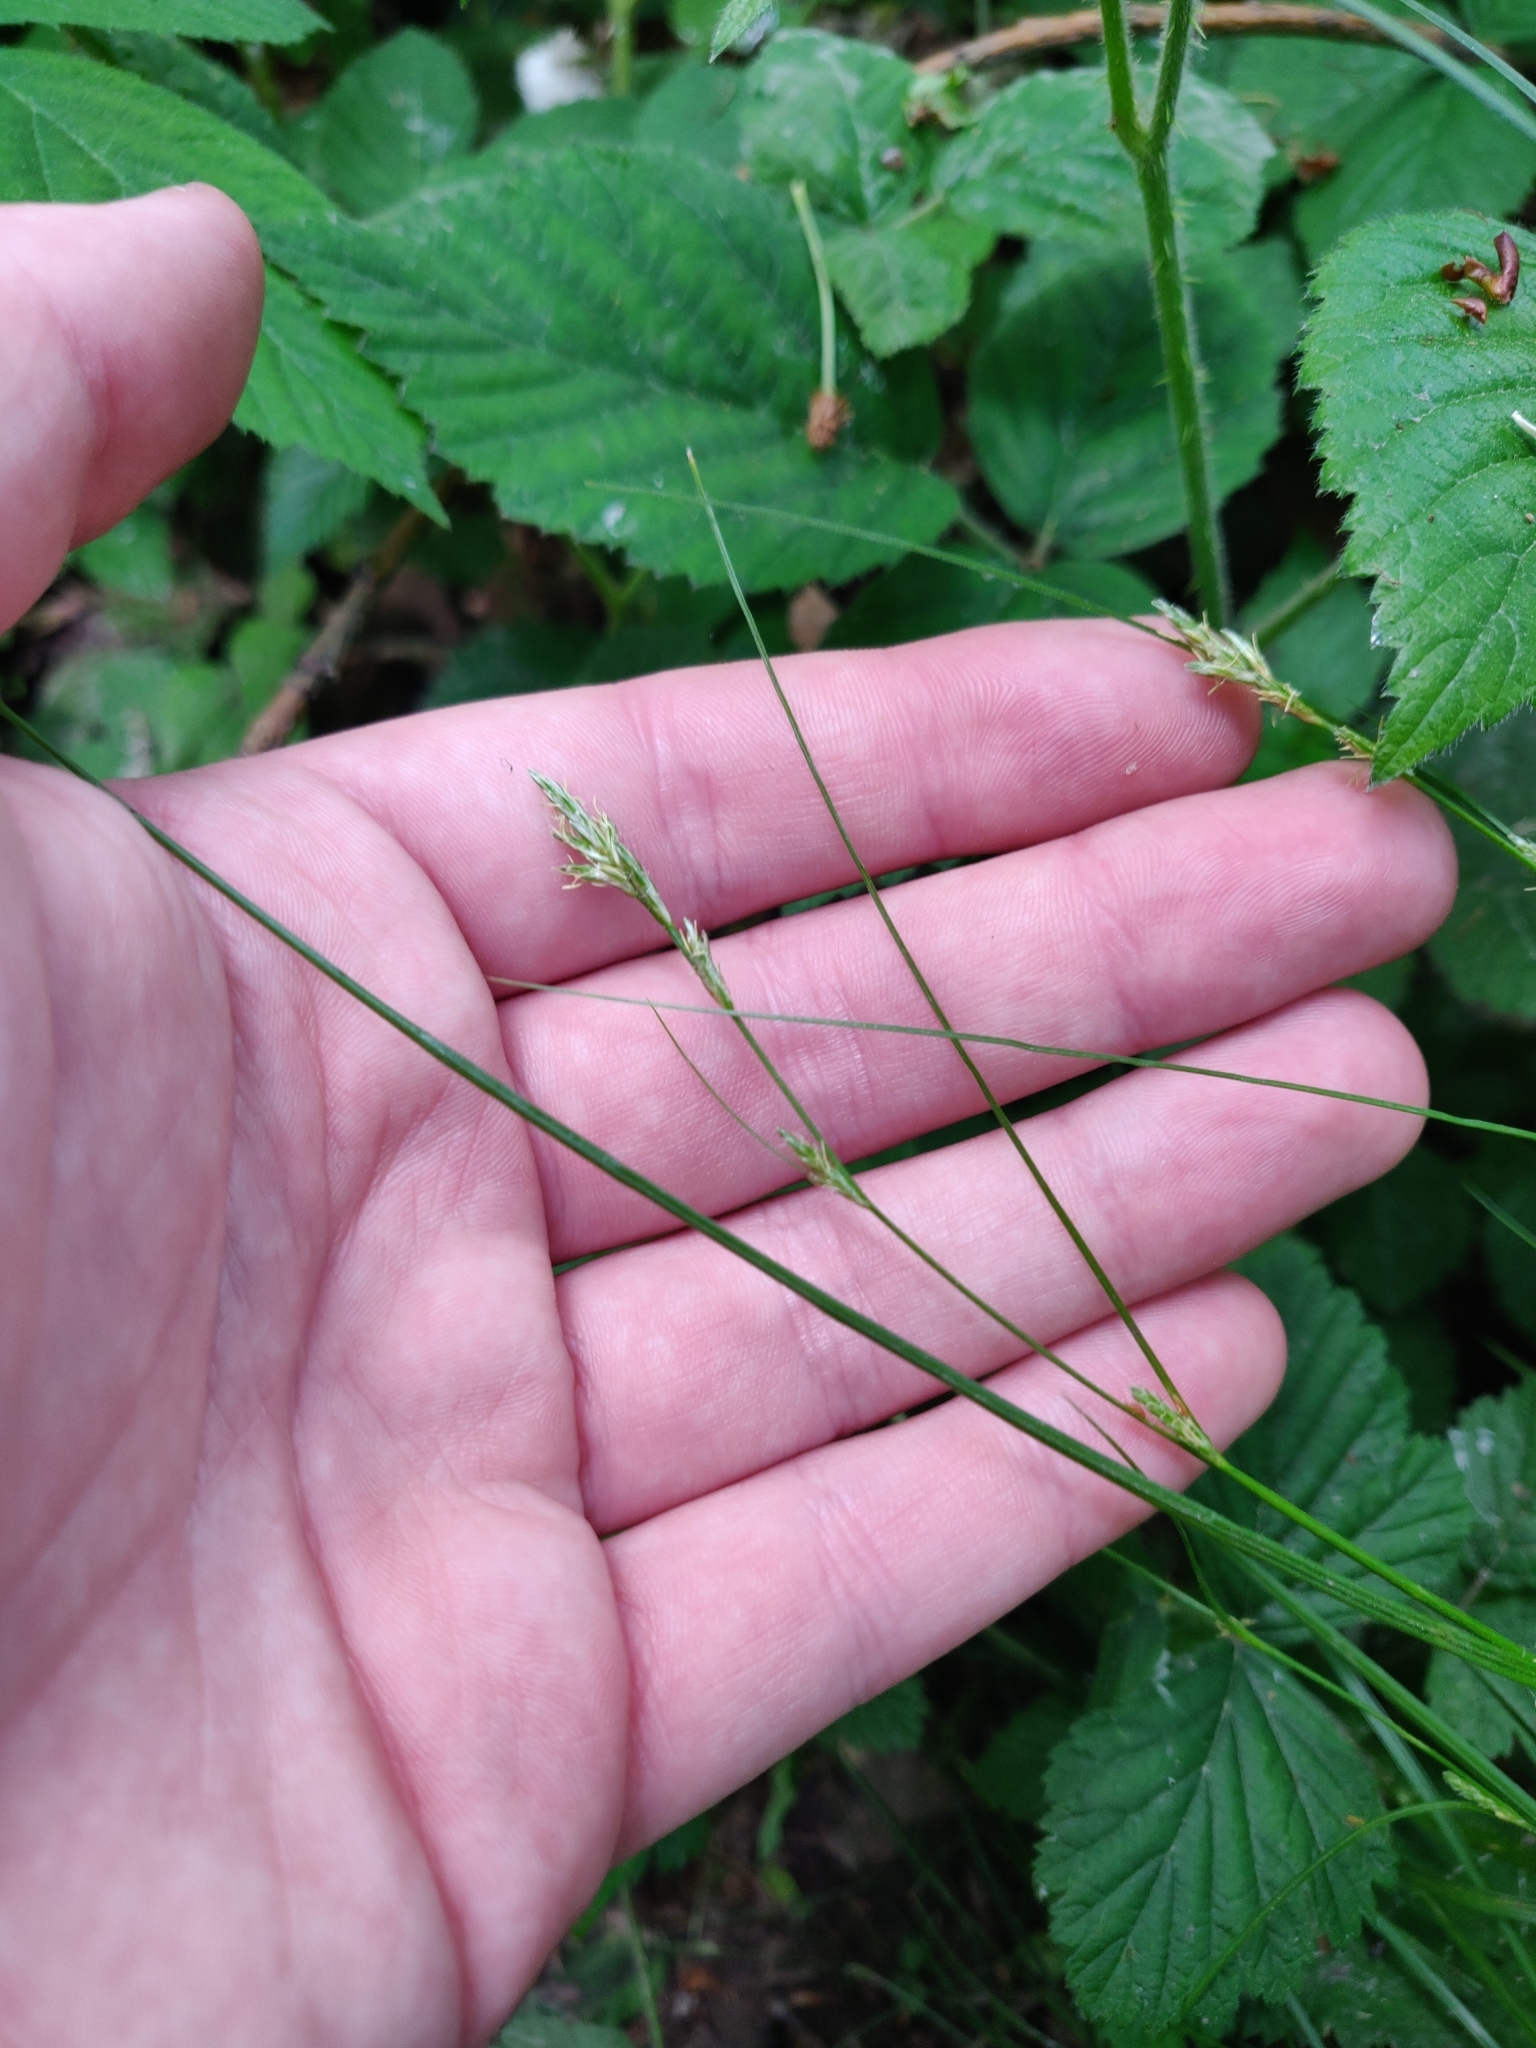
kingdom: Plantae
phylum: Tracheophyta
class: Liliopsida
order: Poales
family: Cyperaceae
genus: Carex
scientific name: Carex remota
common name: Remote sedge
